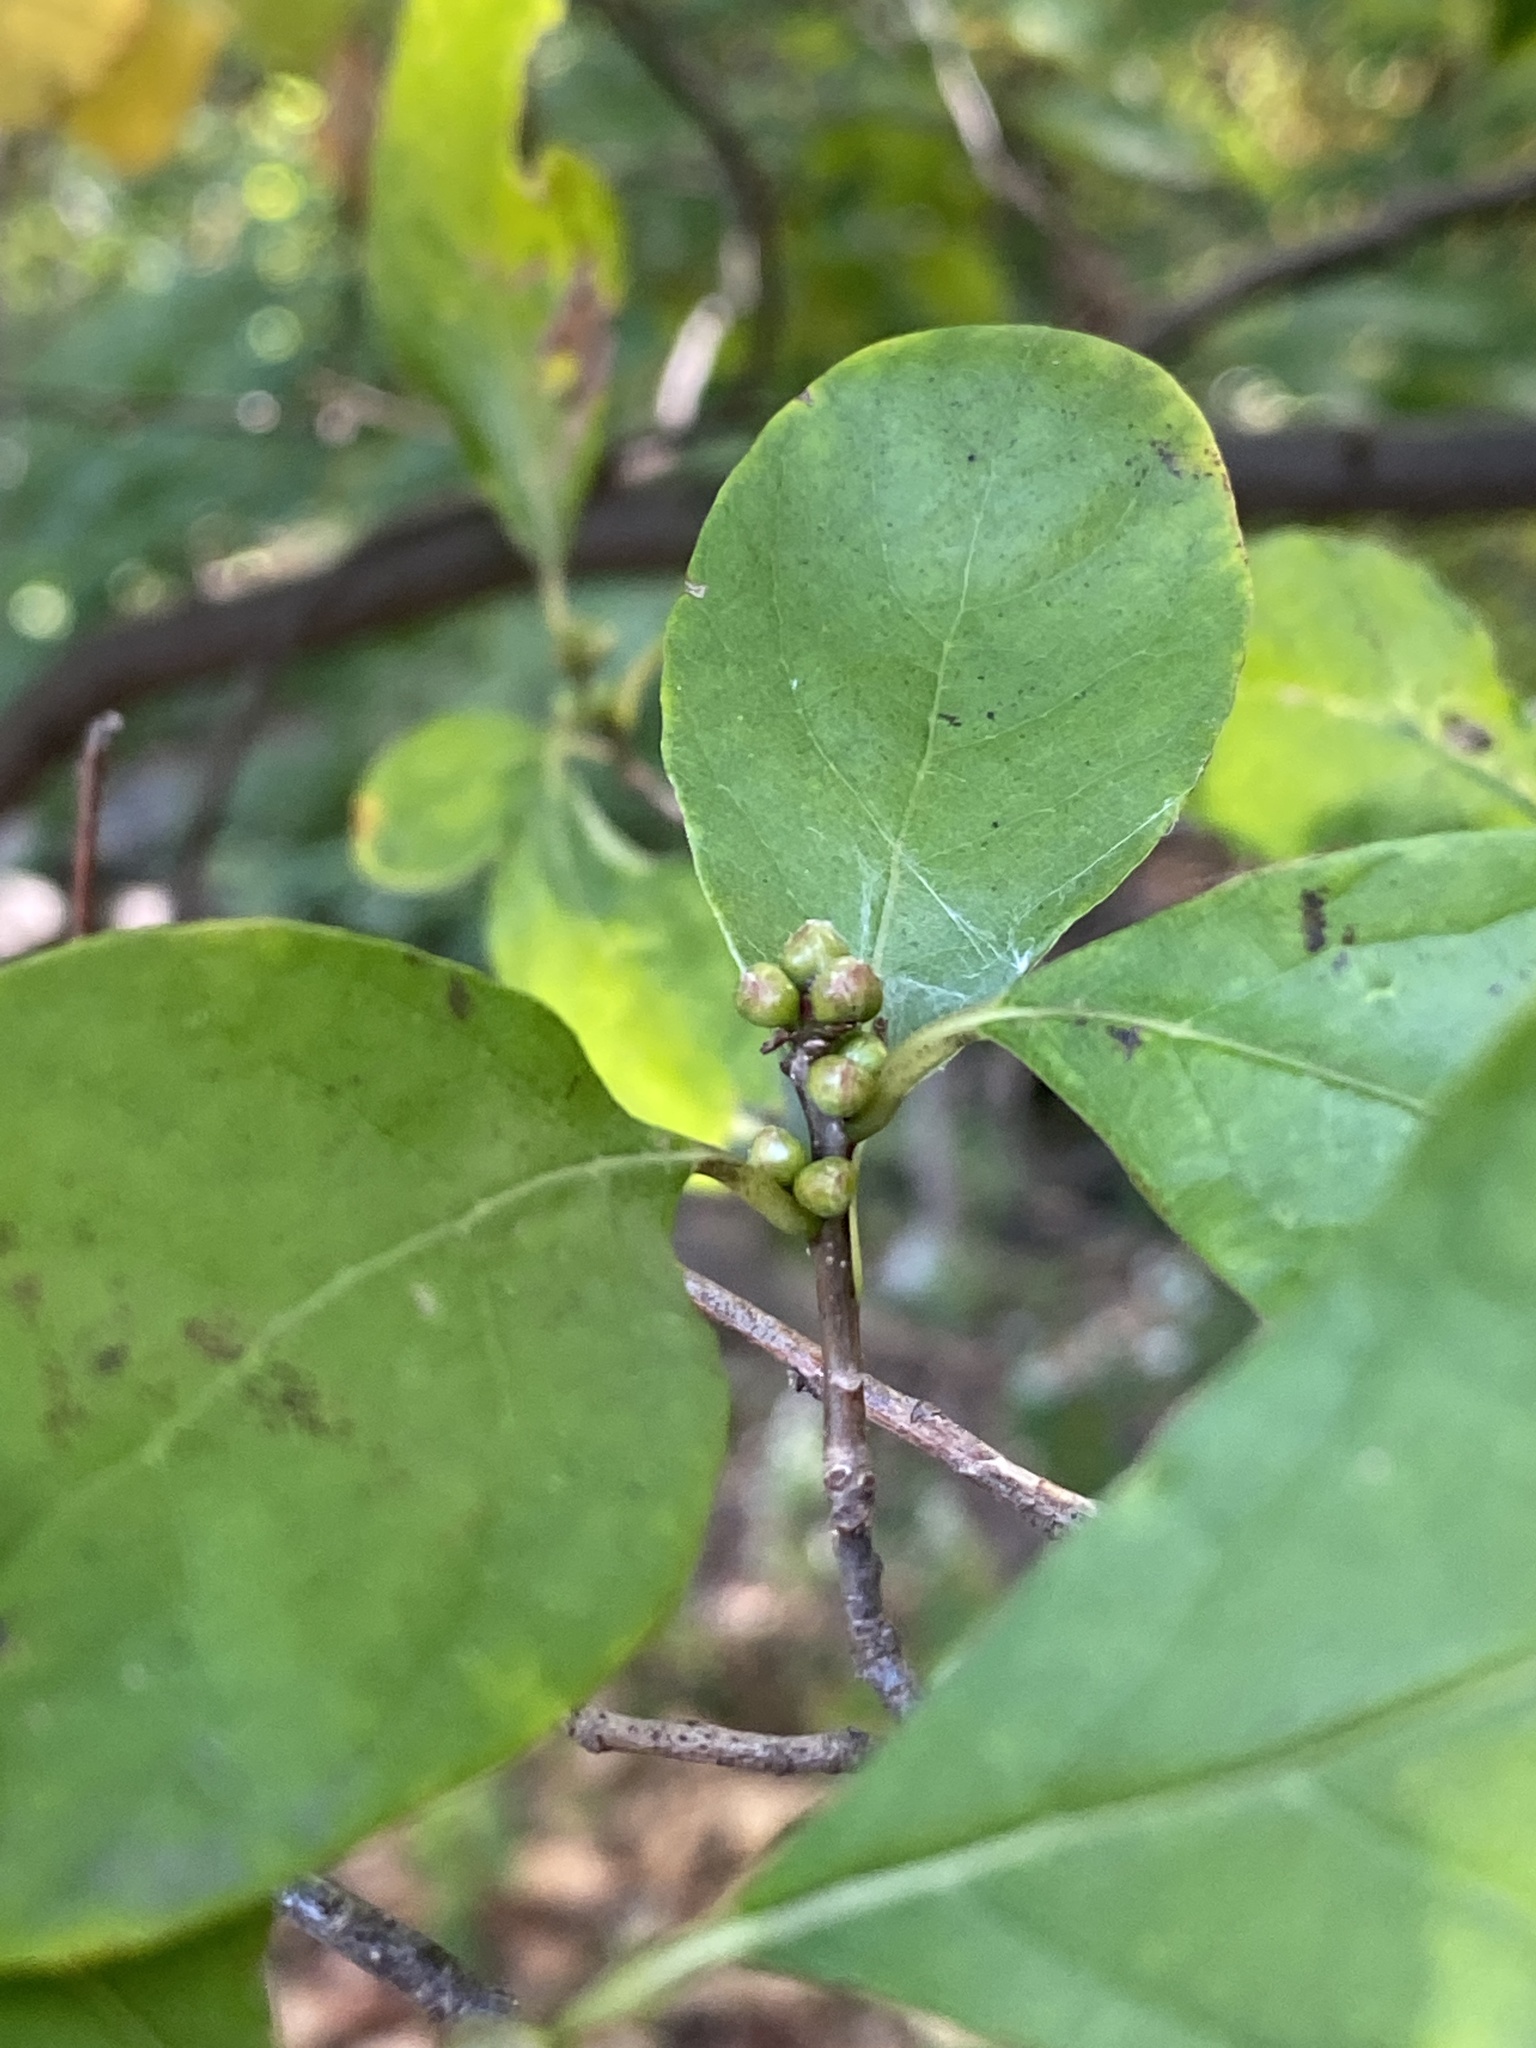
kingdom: Plantae
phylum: Tracheophyta
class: Magnoliopsida
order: Laurales
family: Lauraceae
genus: Lindera
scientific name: Lindera benzoin
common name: Spicebush
